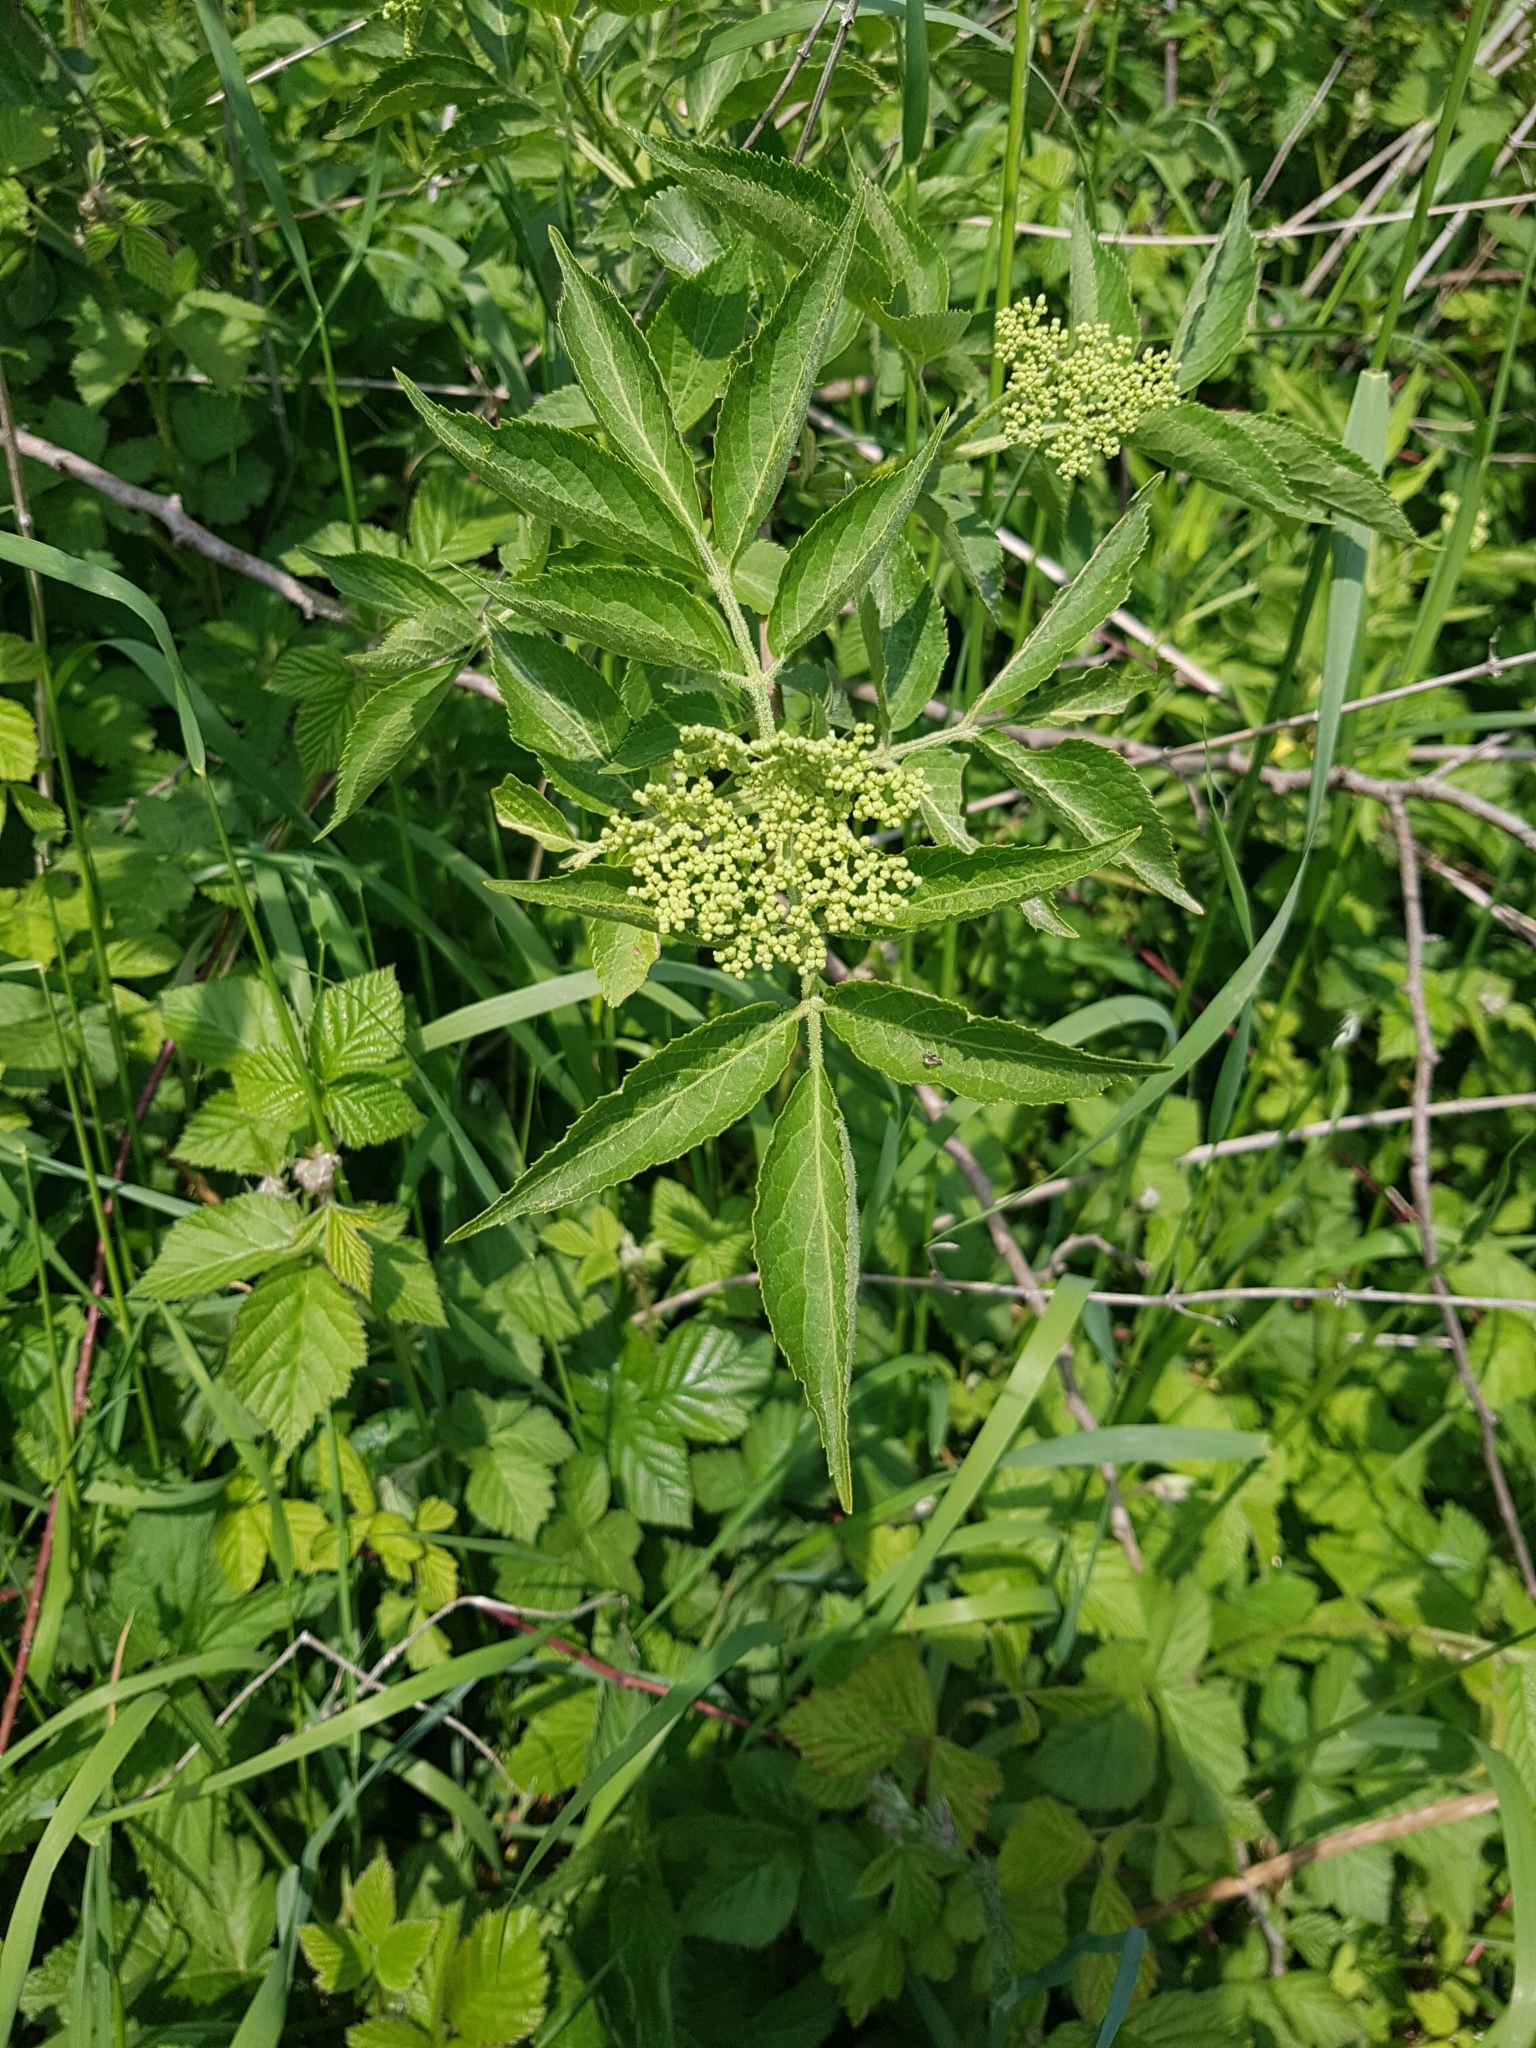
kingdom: Plantae
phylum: Tracheophyta
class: Magnoliopsida
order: Dipsacales
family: Viburnaceae
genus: Sambucus
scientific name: Sambucus nigra
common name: Elder
